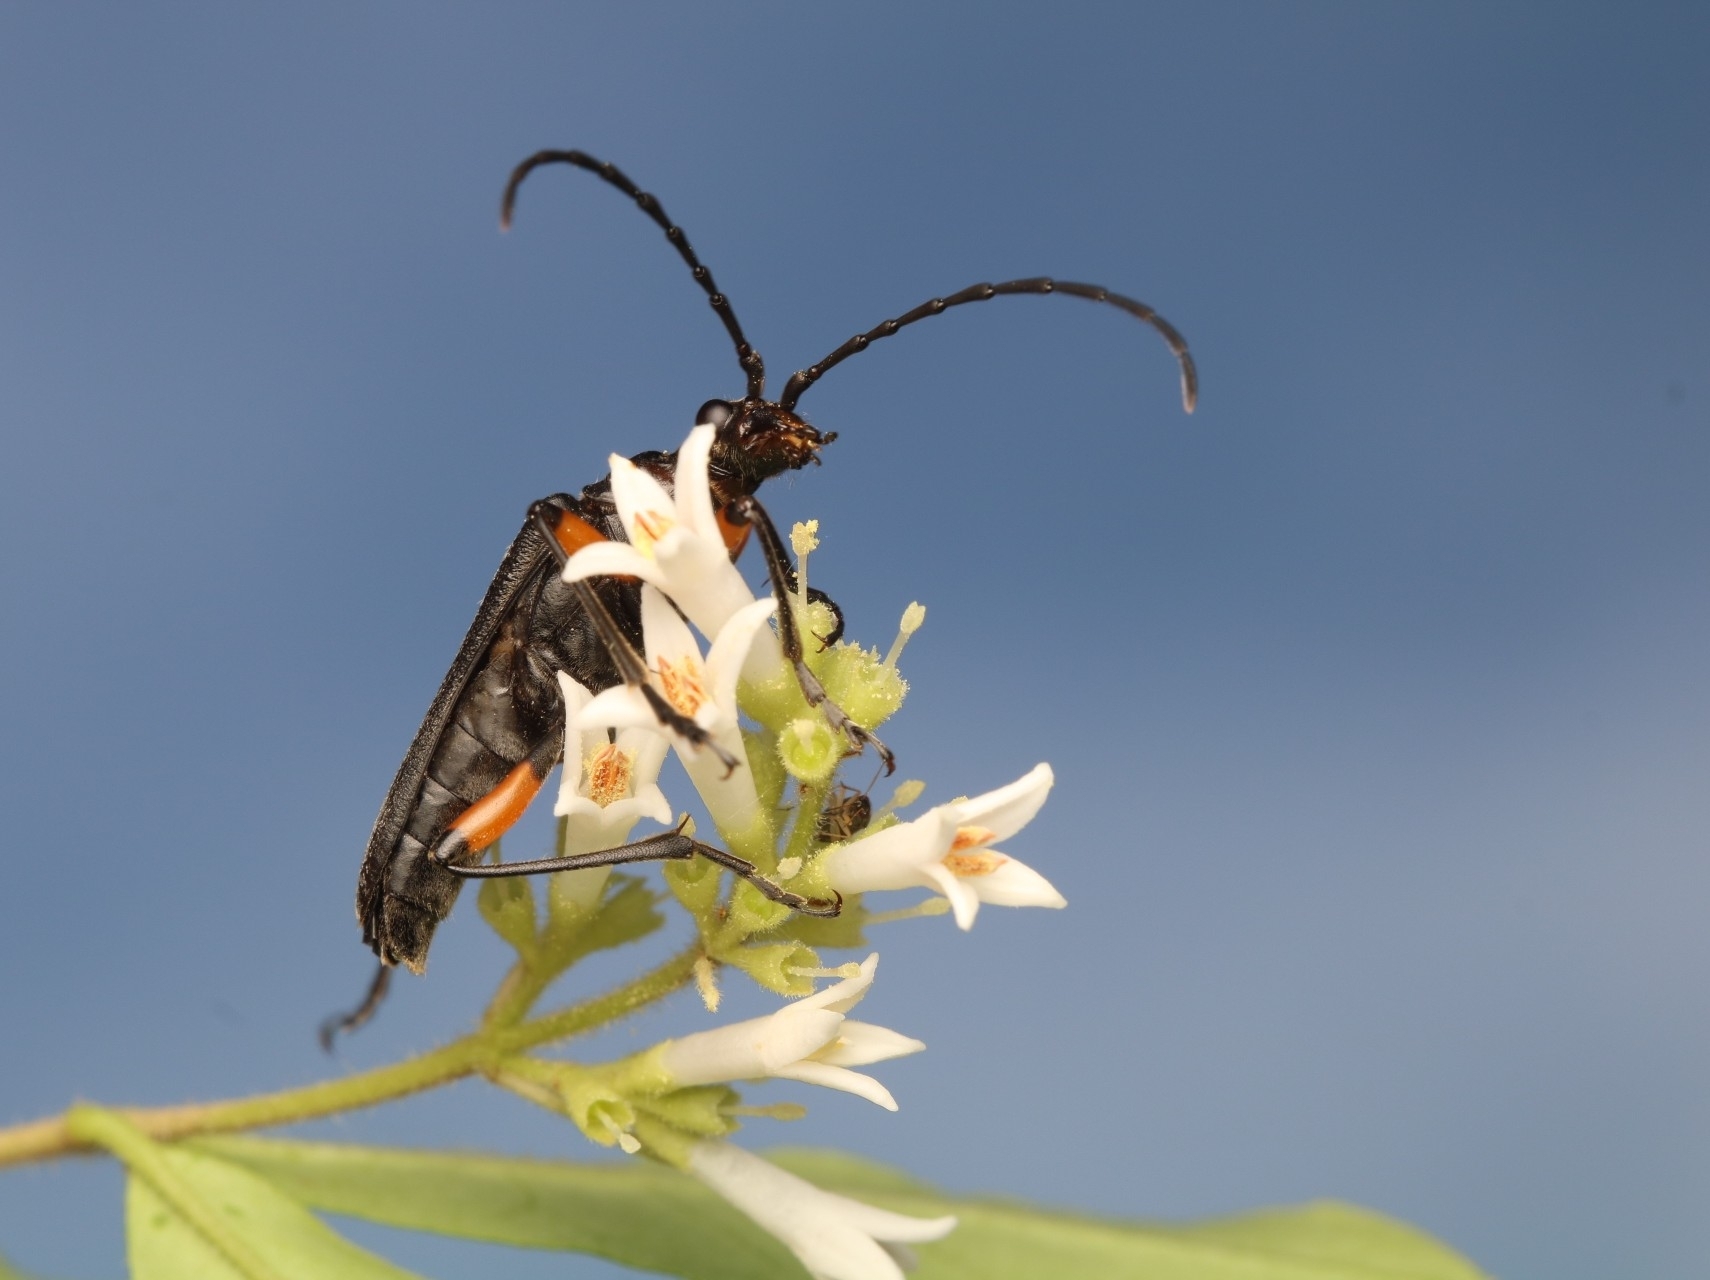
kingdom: Animalia
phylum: Arthropoda
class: Insecta
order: Coleoptera
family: Cerambycidae
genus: Stenocorus
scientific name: Stenocorus schaumii
